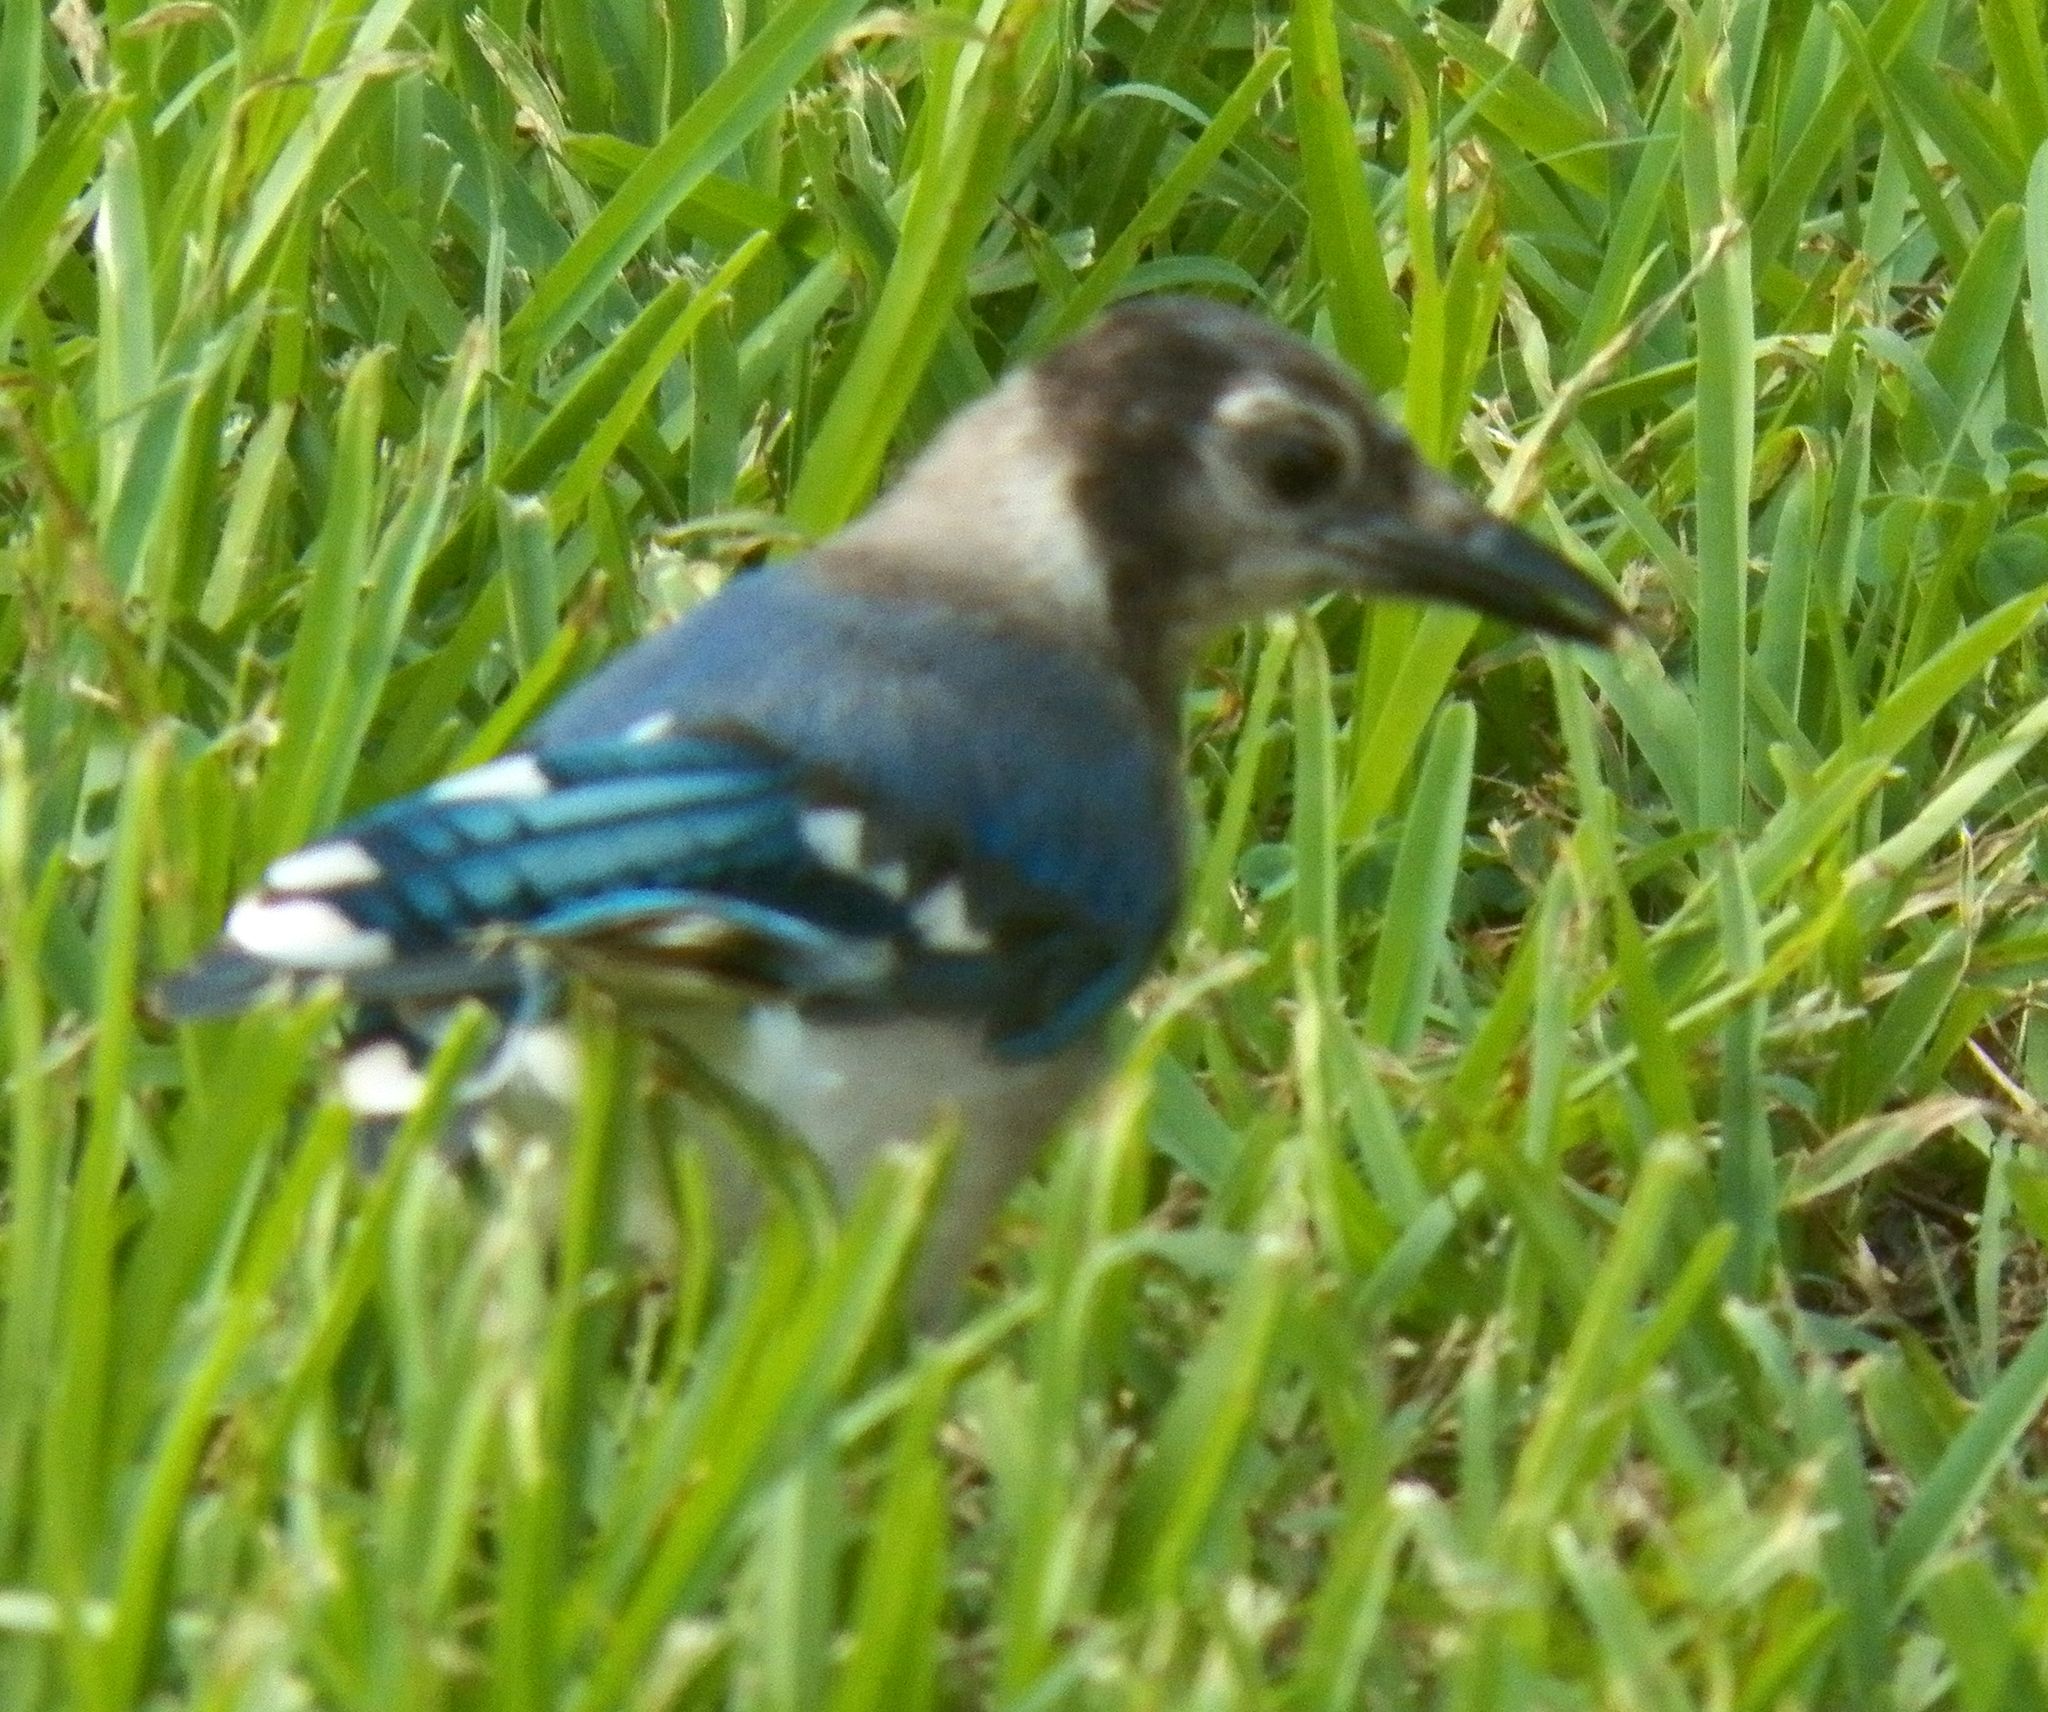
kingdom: Animalia
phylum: Chordata
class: Aves
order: Passeriformes
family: Corvidae
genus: Cyanocitta
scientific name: Cyanocitta cristata
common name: Blue jay
